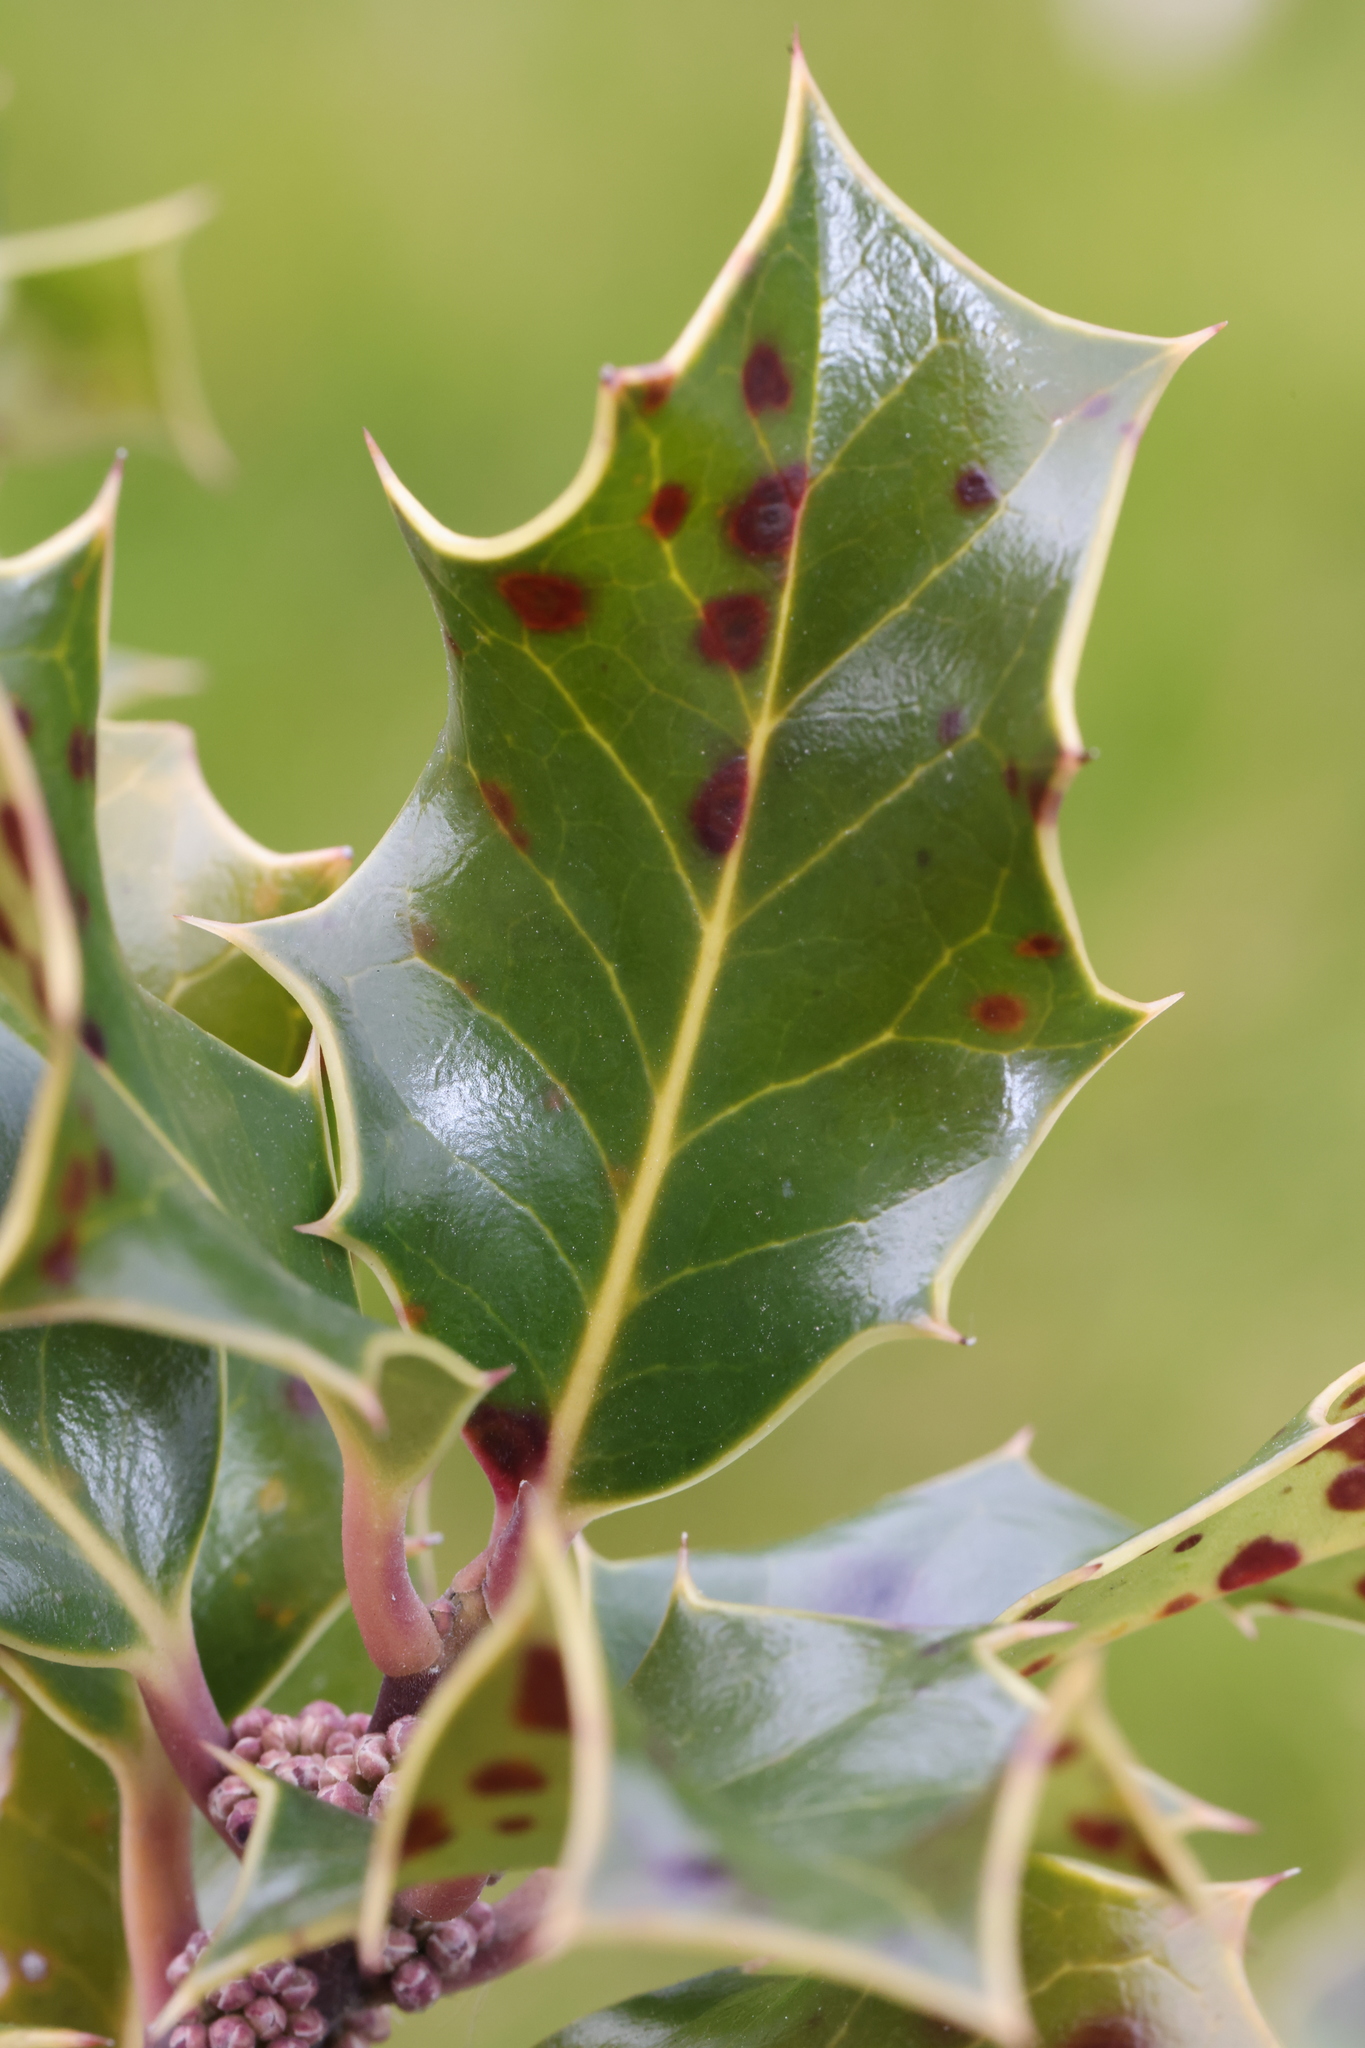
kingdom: Plantae
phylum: Tracheophyta
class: Magnoliopsida
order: Aquifoliales
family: Aquifoliaceae
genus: Ilex
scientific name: Ilex aquifolium
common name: English holly
